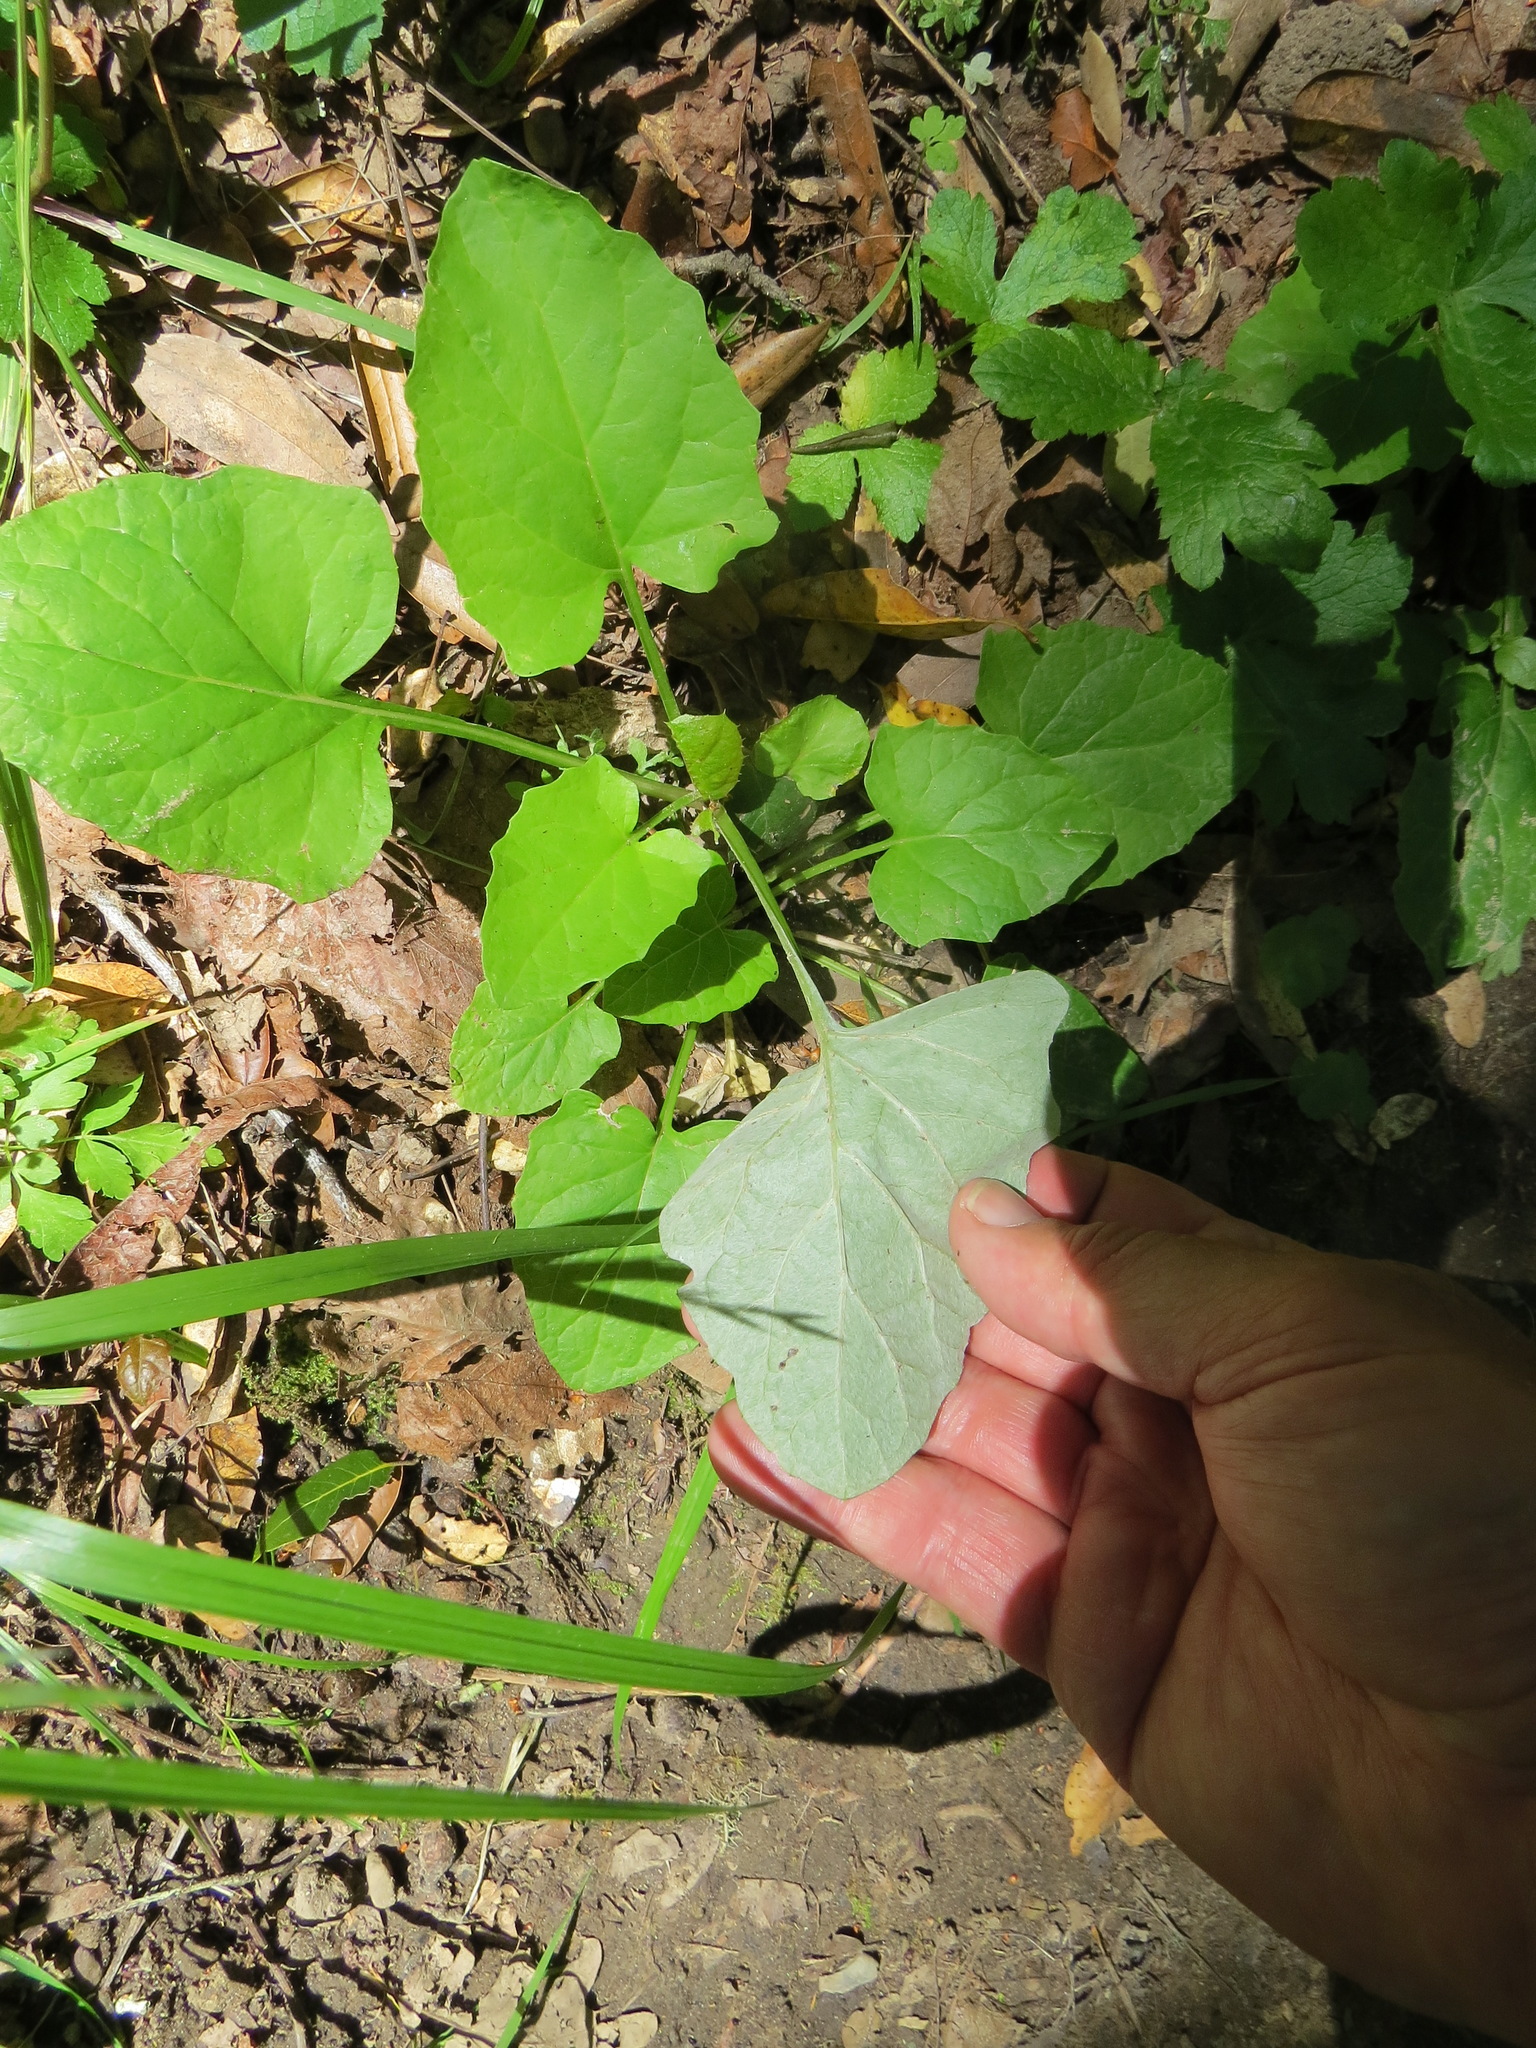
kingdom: Plantae
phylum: Tracheophyta
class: Magnoliopsida
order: Asterales
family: Asteraceae
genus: Adenocaulon
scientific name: Adenocaulon bicolor
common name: Trailplant
